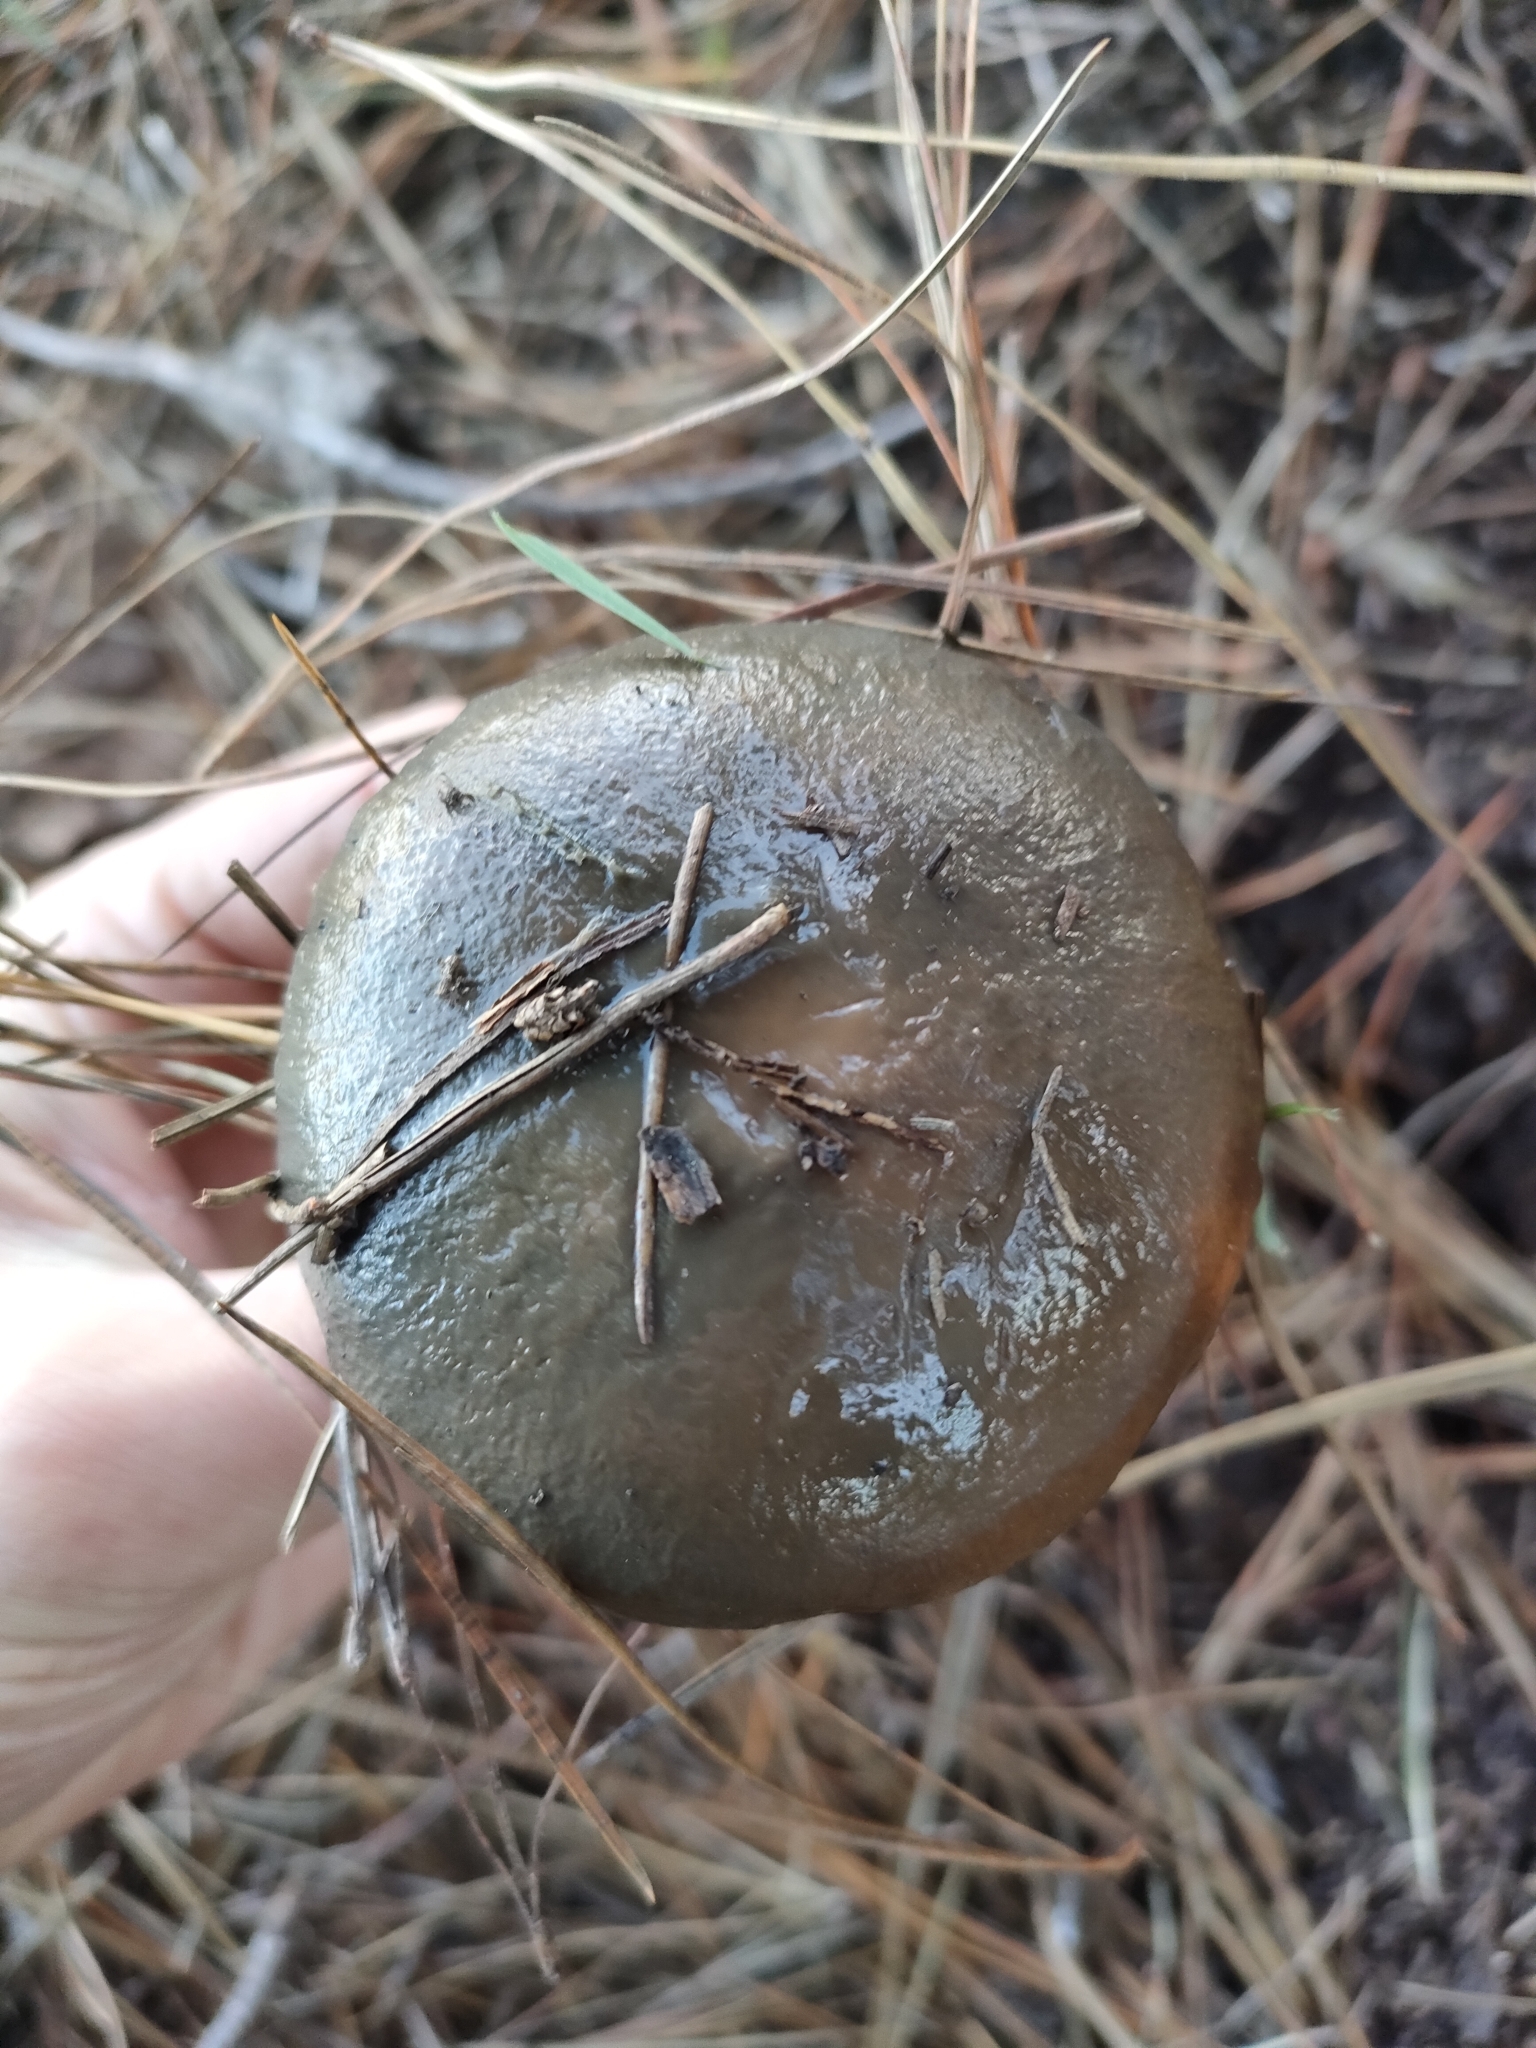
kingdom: Fungi
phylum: Basidiomycota
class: Agaricomycetes
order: Boletales
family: Suillaceae
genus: Suillus
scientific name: Suillus pungens
